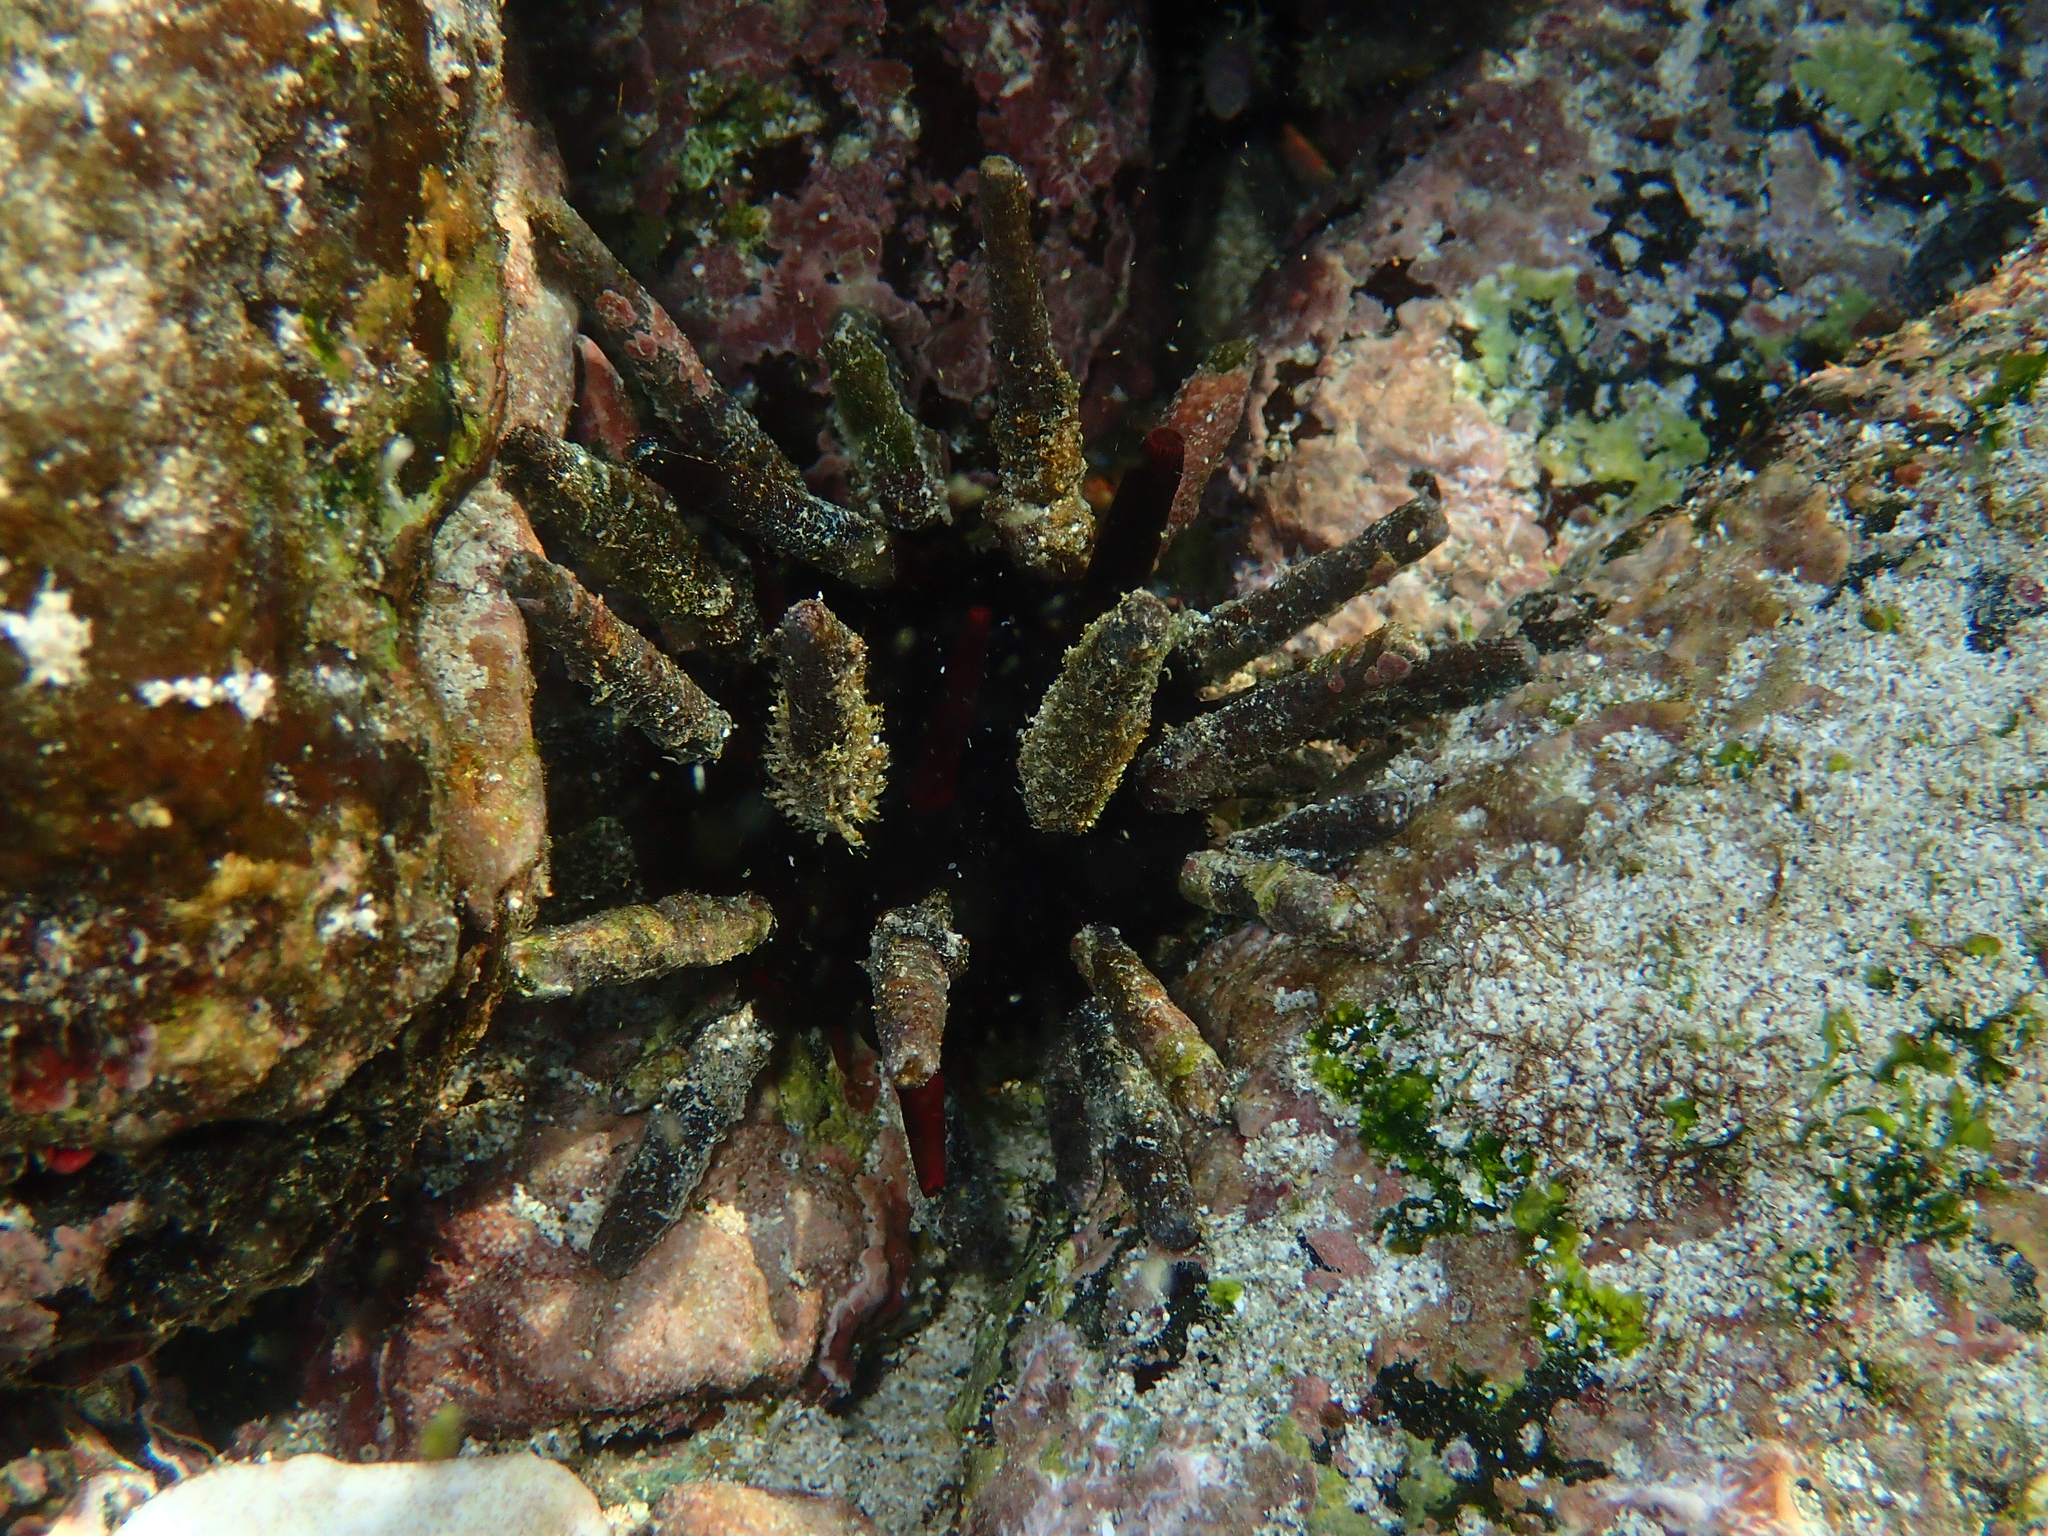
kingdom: Animalia
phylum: Echinodermata
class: Echinoidea
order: Cidaroida
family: Cidaridae
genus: Eucidaris
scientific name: Eucidaris galapagensis
